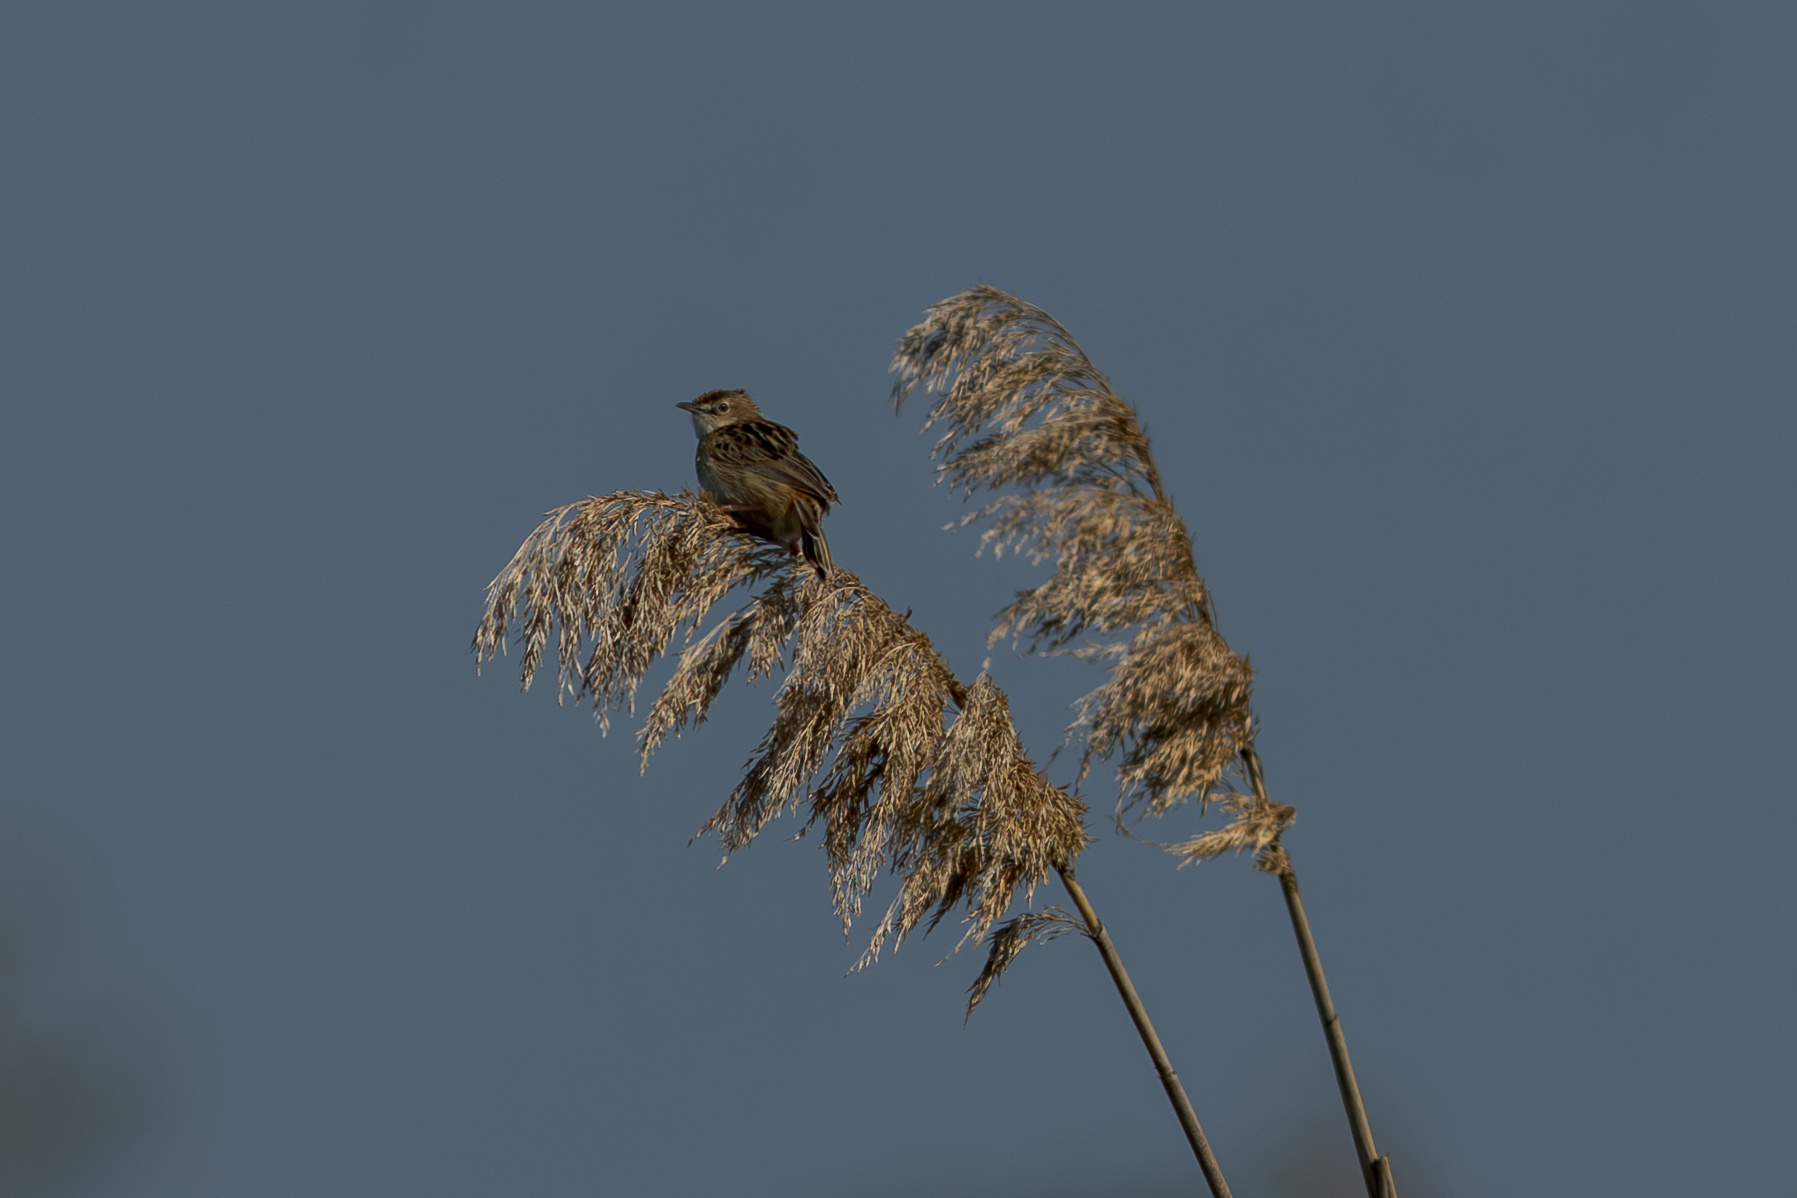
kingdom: Animalia
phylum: Chordata
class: Aves
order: Passeriformes
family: Cisticolidae
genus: Cisticola
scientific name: Cisticola juncidis
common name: Zitting cisticola
